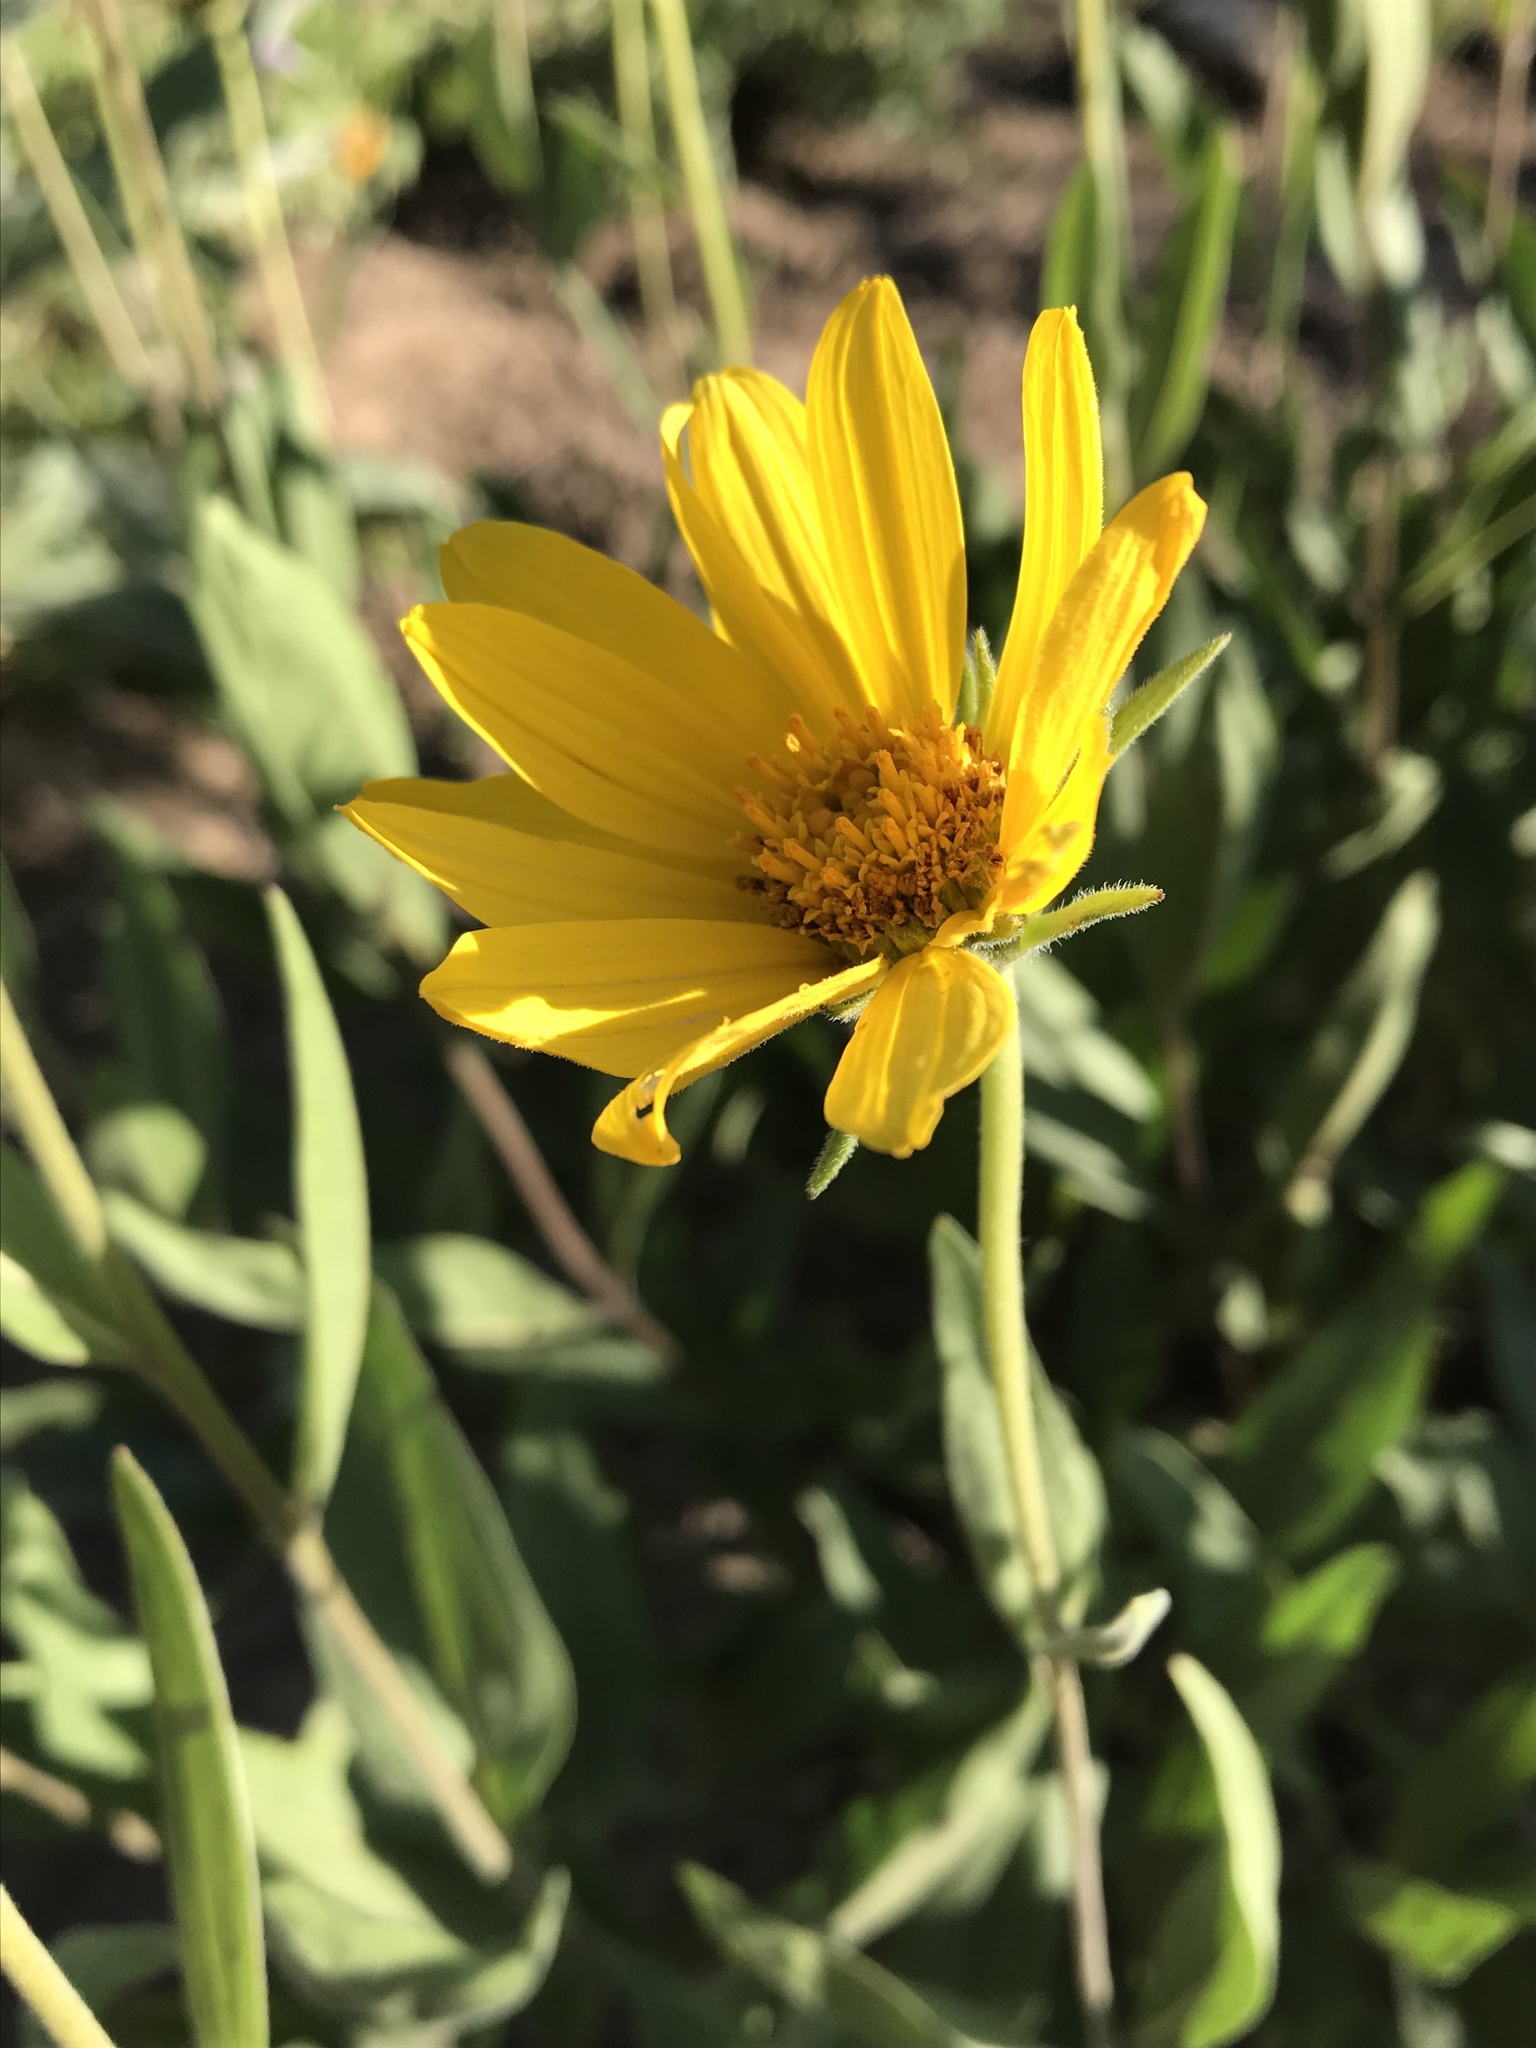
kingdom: Plantae
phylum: Tracheophyta
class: Magnoliopsida
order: Asterales
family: Asteraceae
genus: Helianthella
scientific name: Helianthella uniflora
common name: Rocky mountain dwarf sunflower
